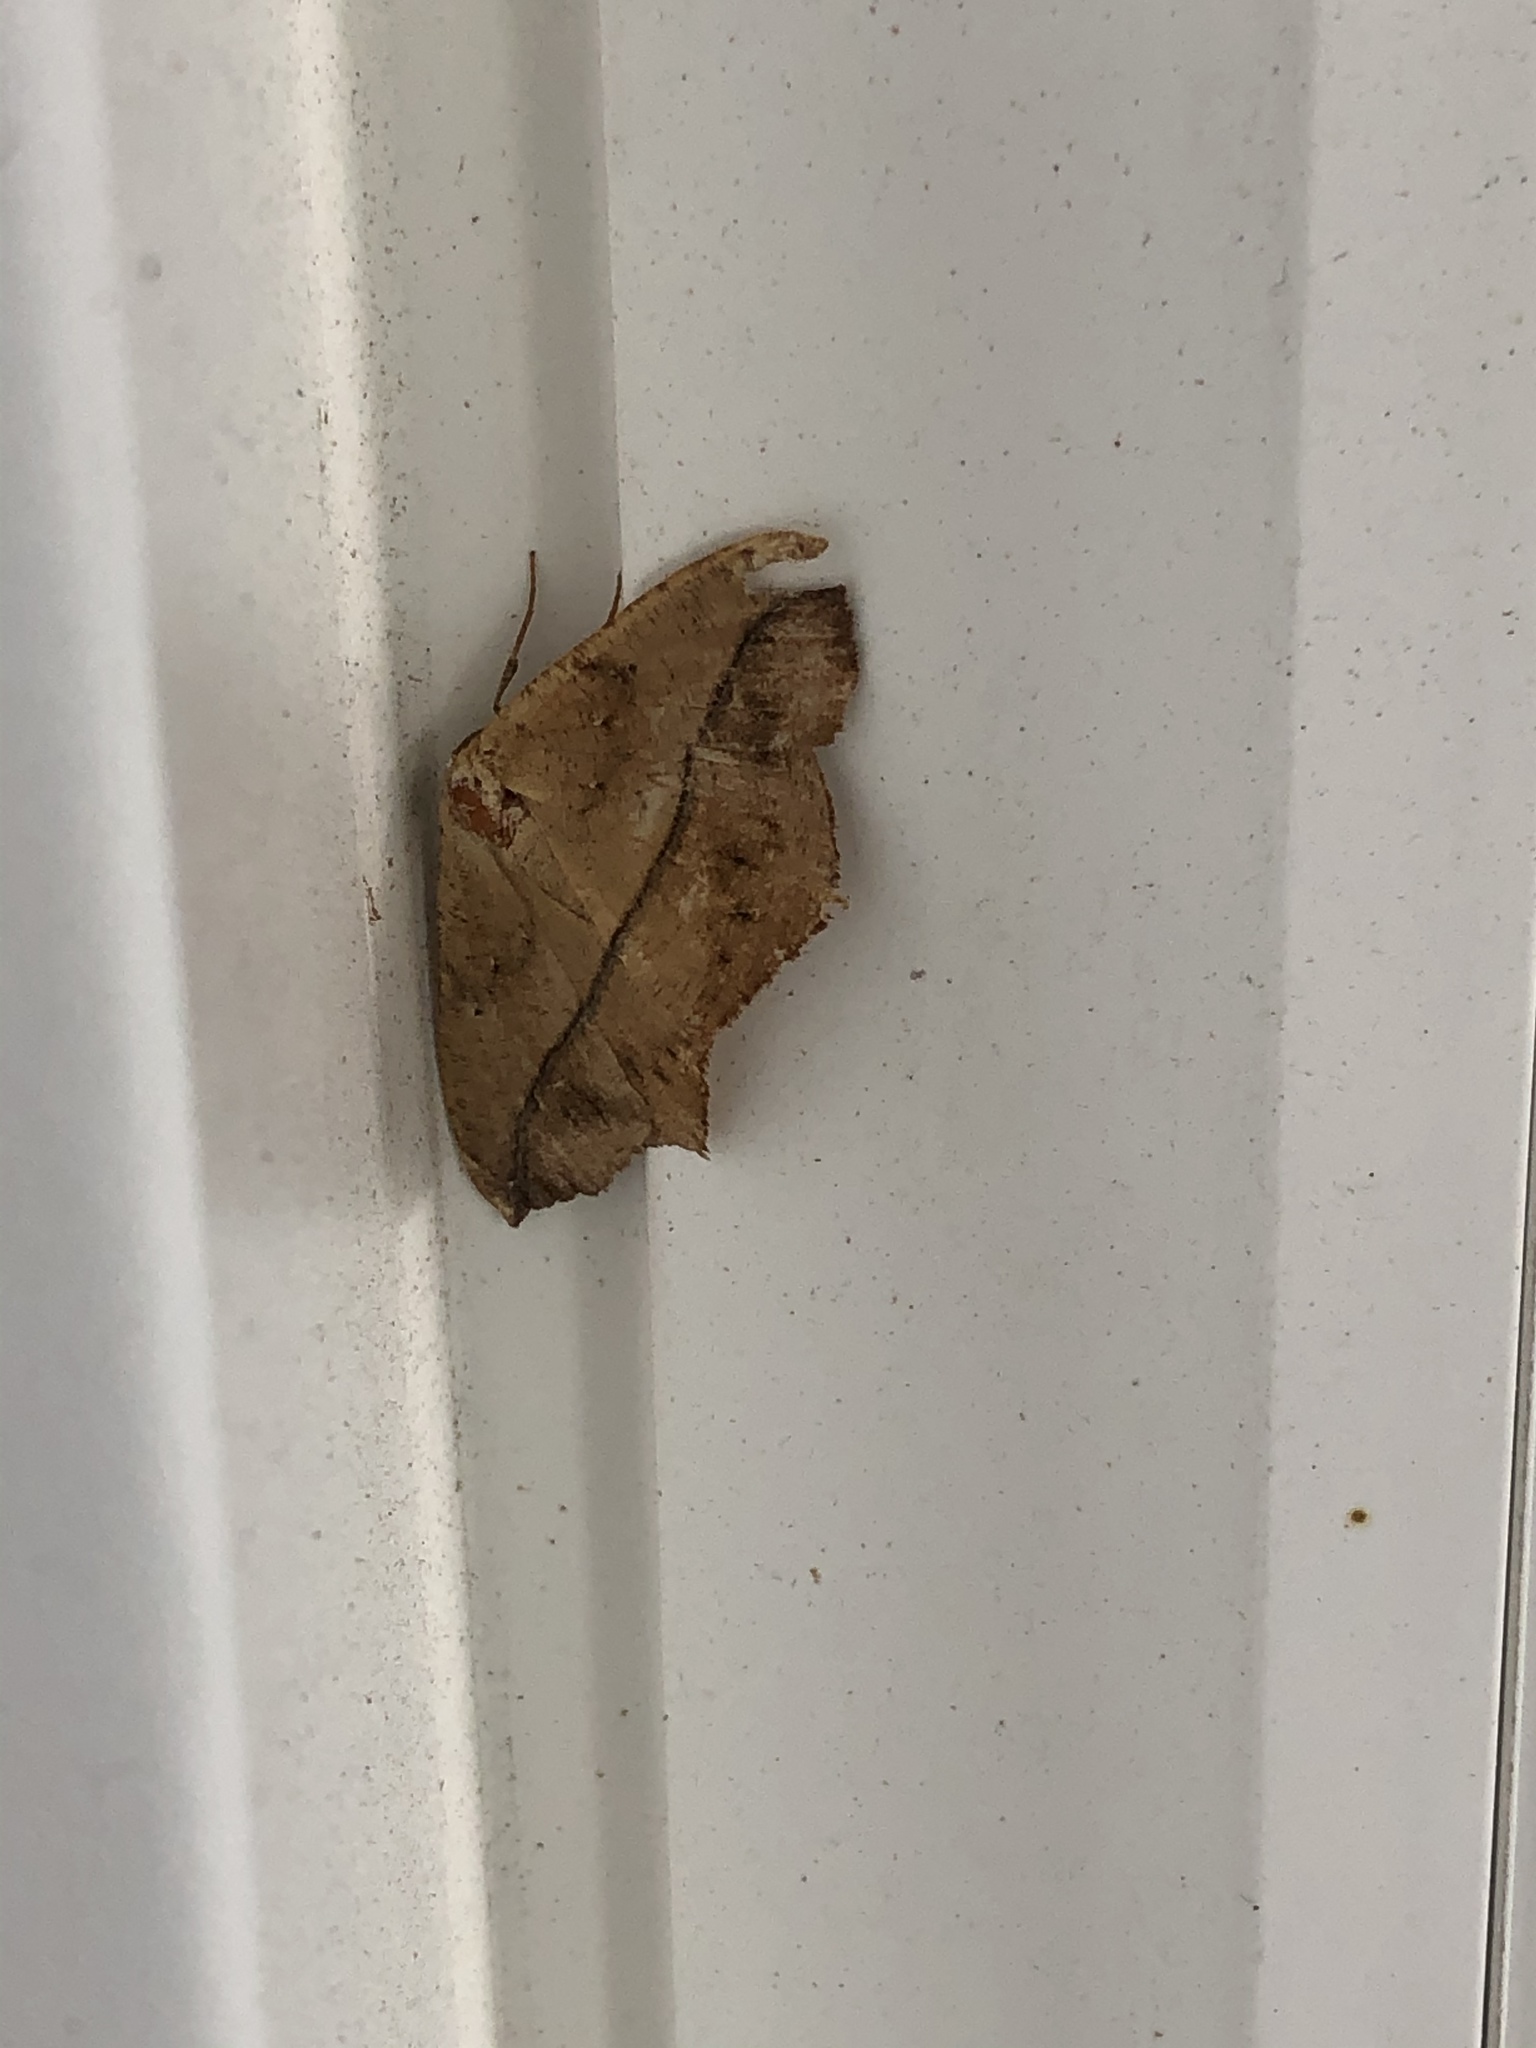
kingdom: Animalia
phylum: Arthropoda
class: Insecta
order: Lepidoptera
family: Geometridae
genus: Prochoerodes
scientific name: Prochoerodes lineola
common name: Large maple spanworm
